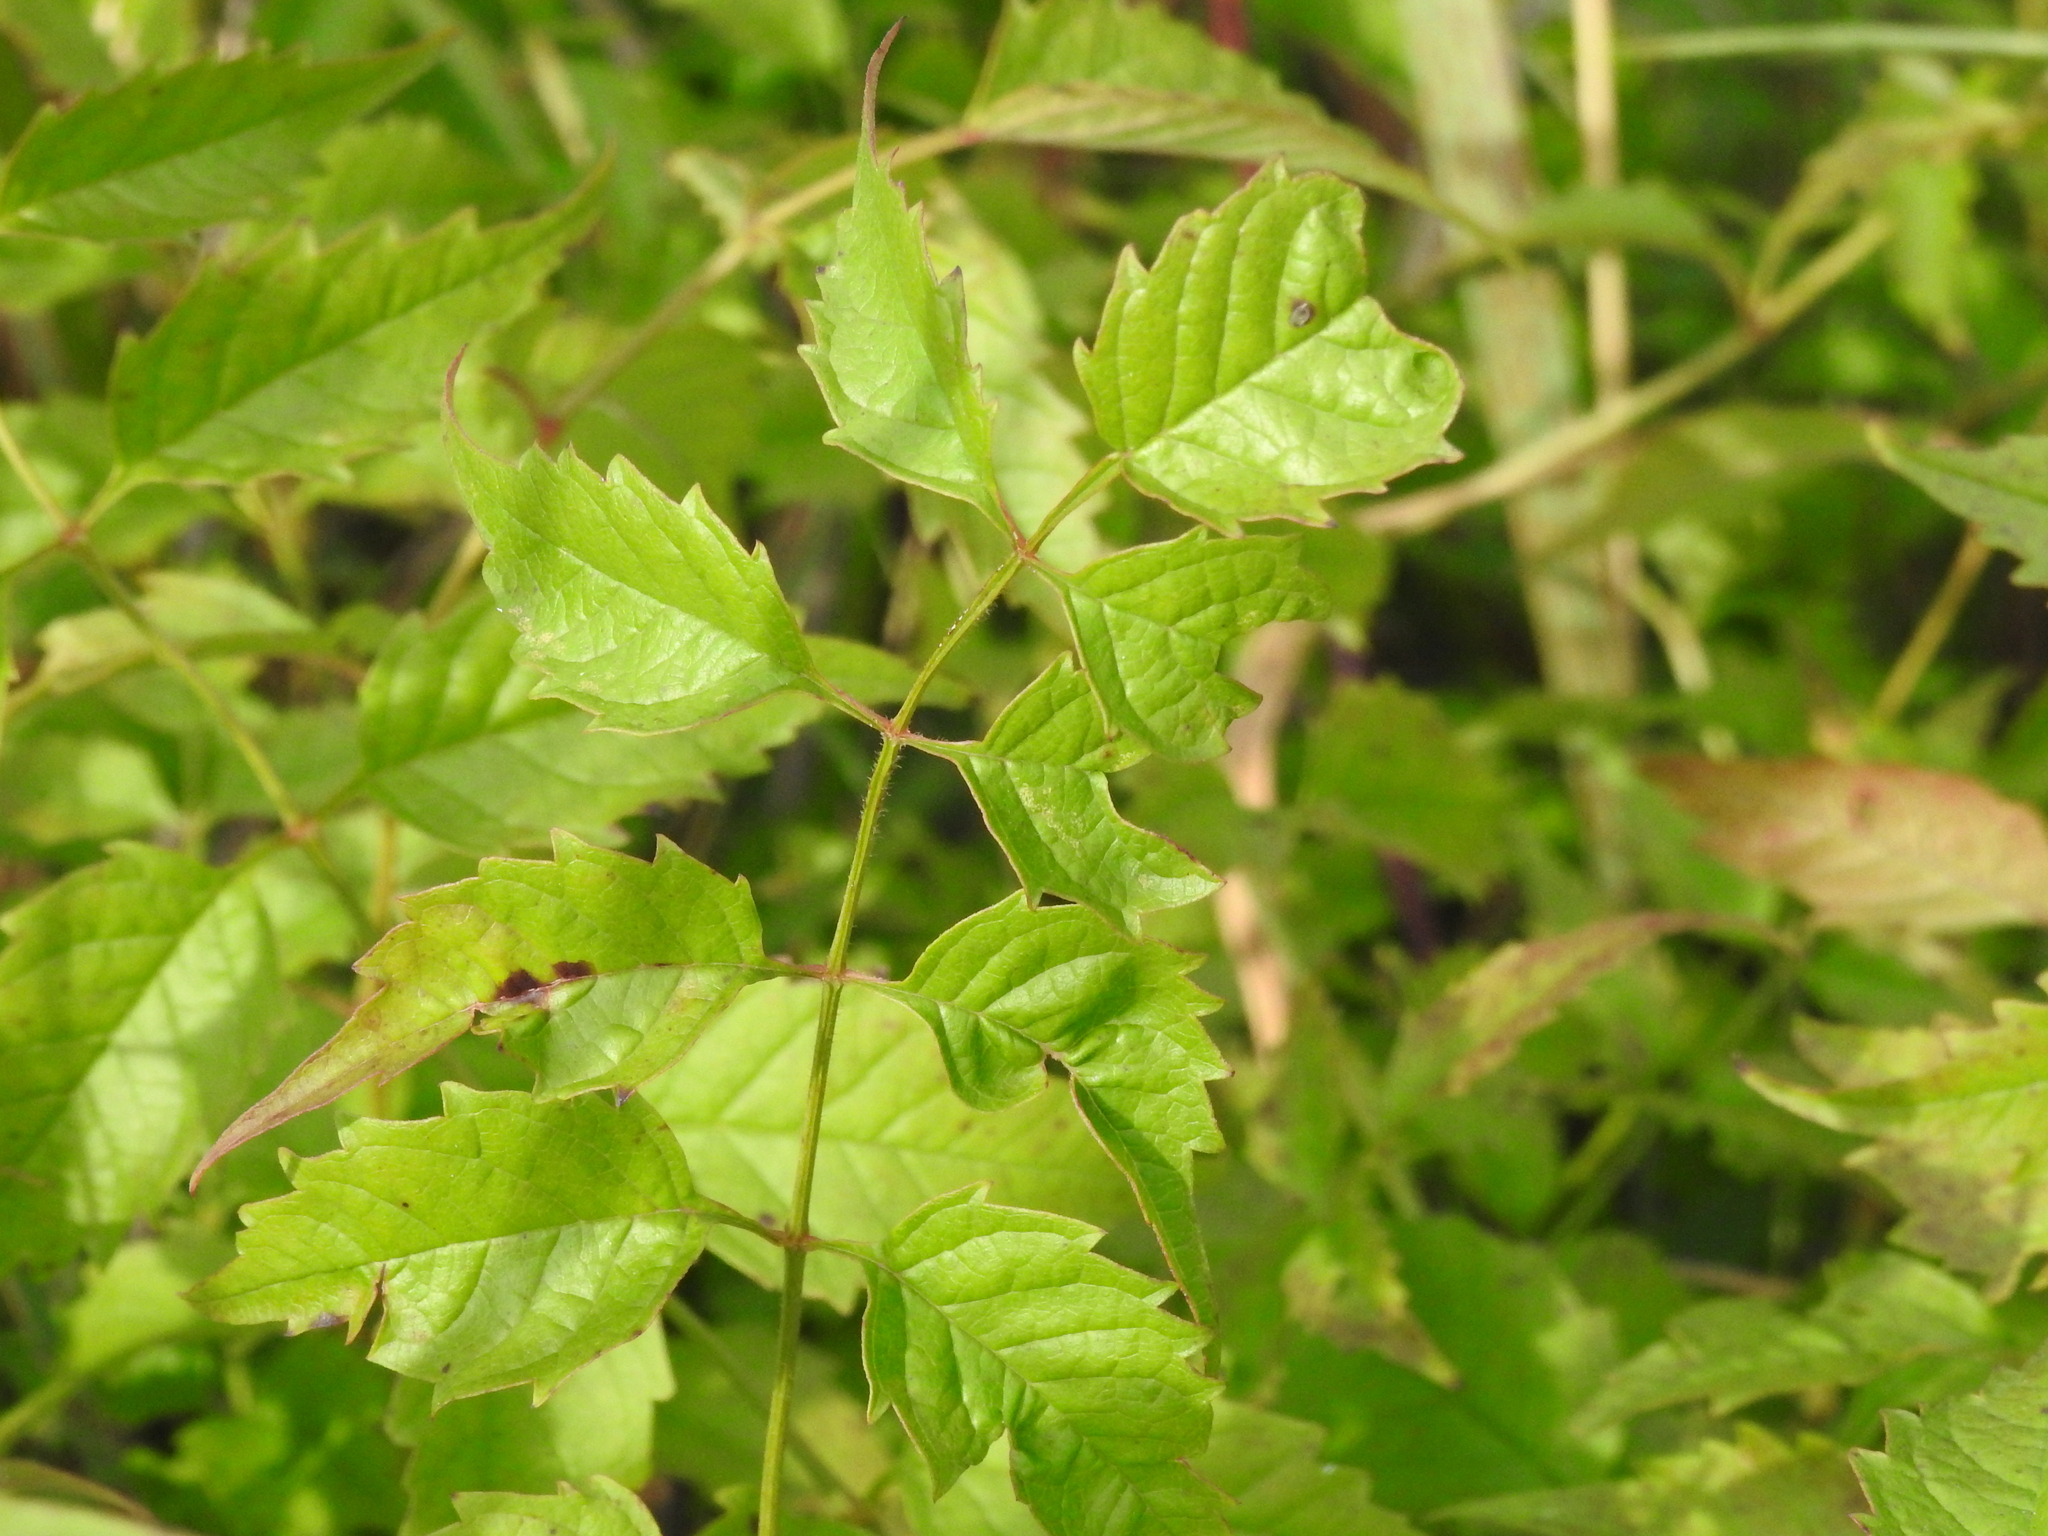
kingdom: Plantae
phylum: Tracheophyta
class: Magnoliopsida
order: Lamiales
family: Bignoniaceae
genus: Campsis
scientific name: Campsis radicans
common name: Trumpet-creeper
